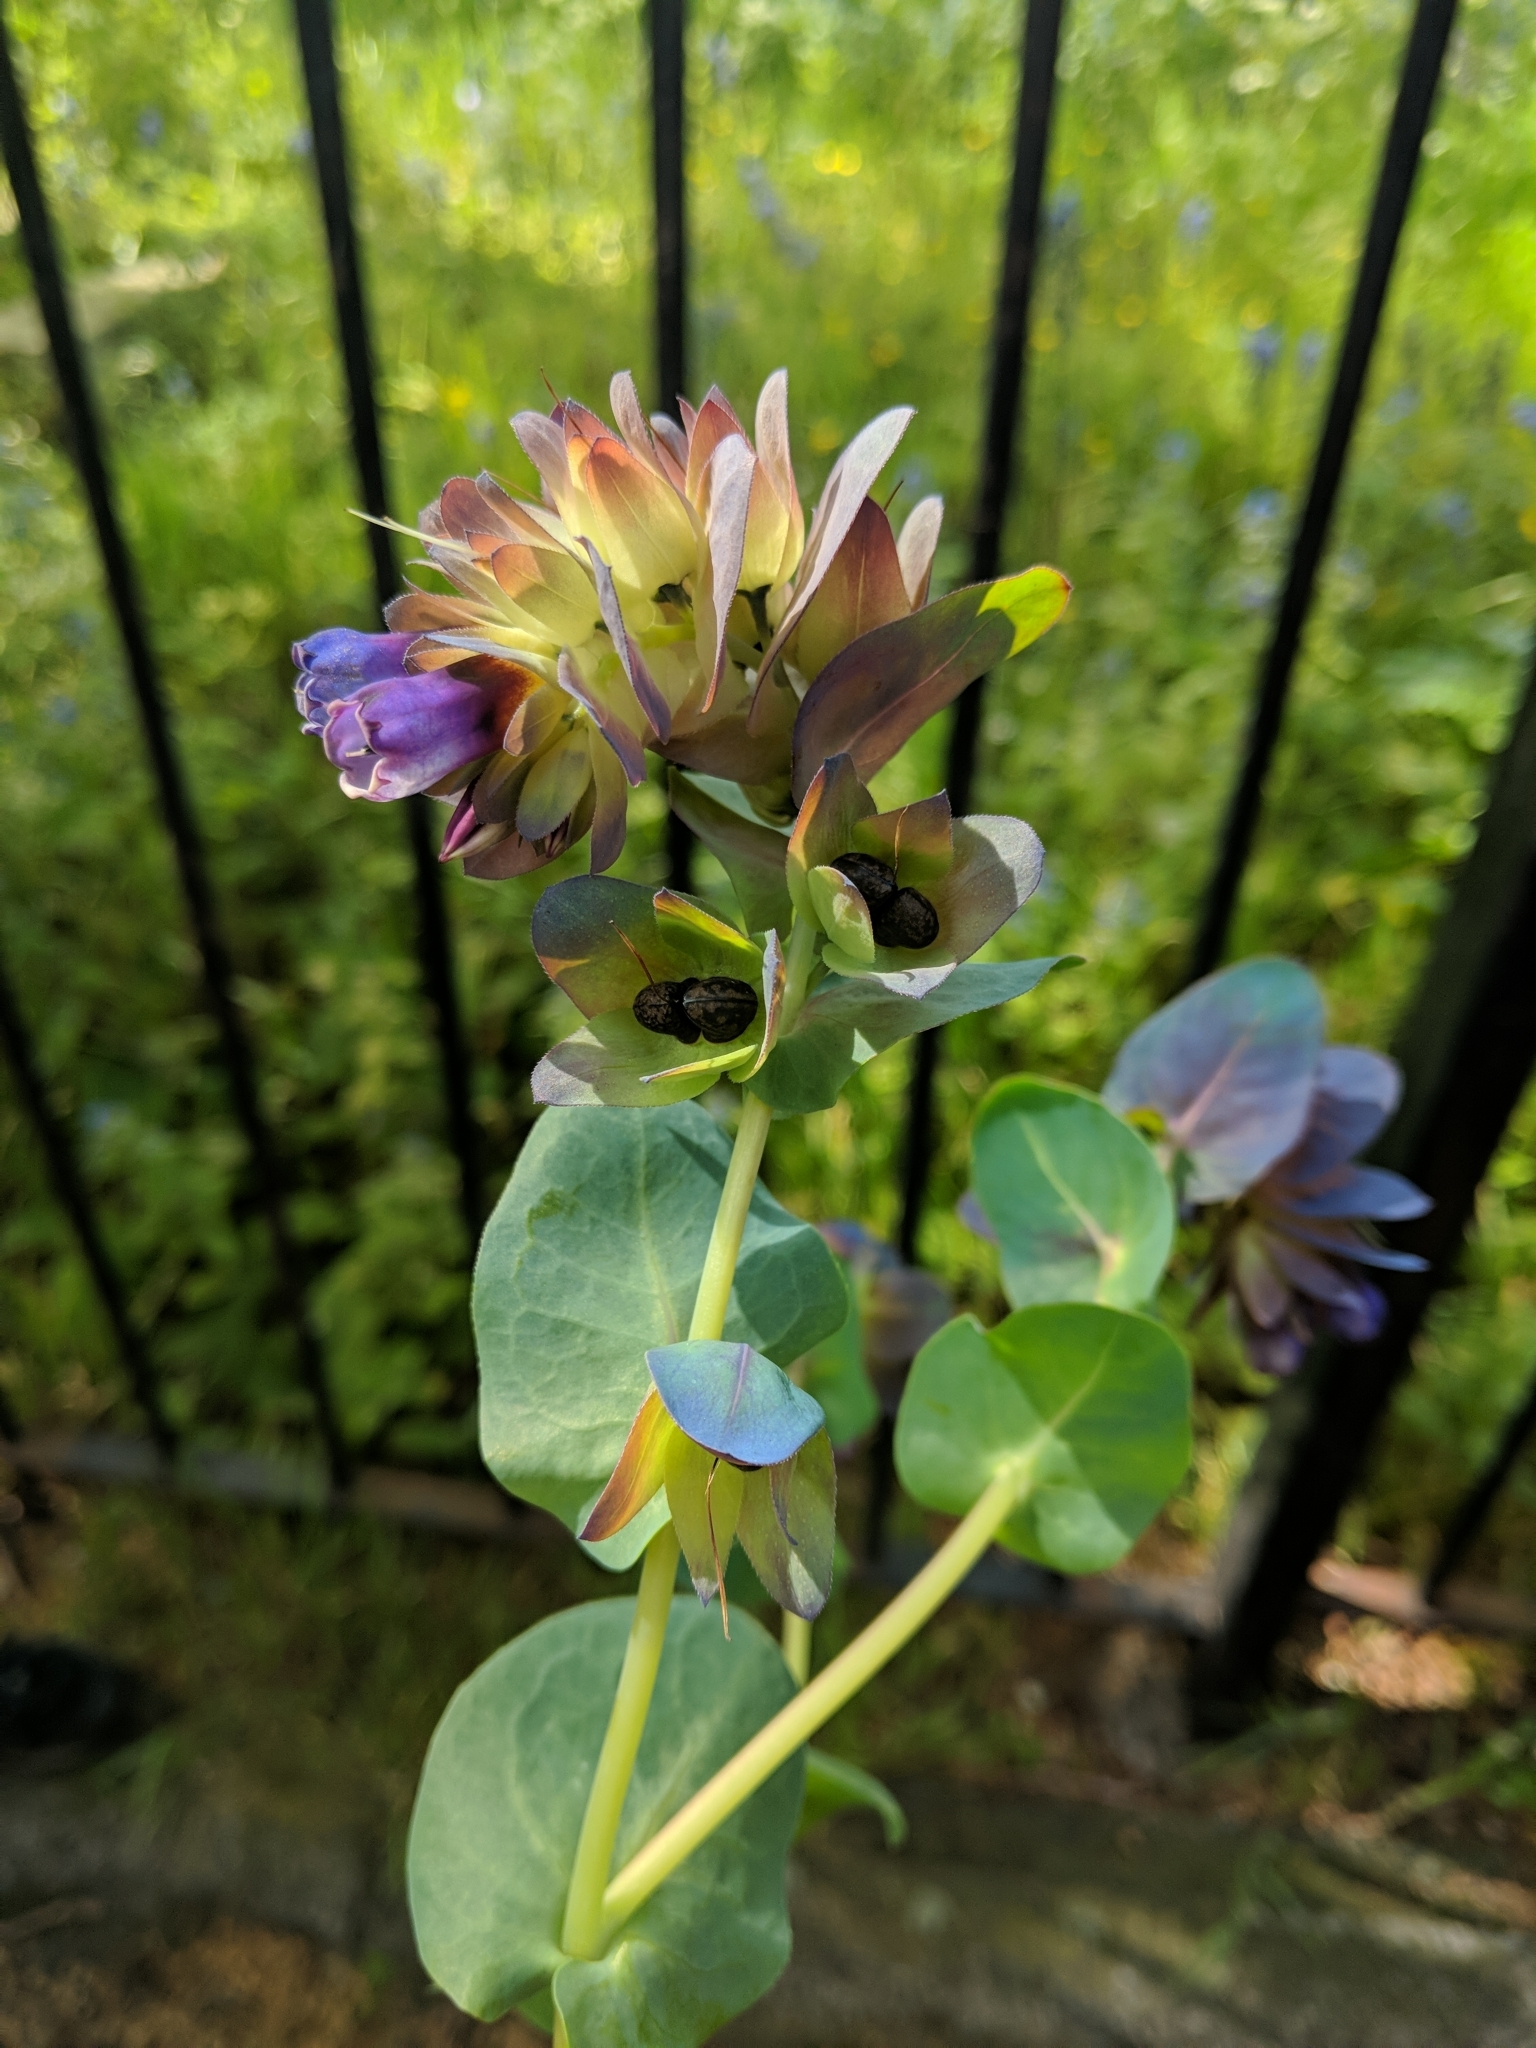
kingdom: Plantae
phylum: Tracheophyta
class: Magnoliopsida
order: Boraginales
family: Boraginaceae
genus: Cerinthe
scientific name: Cerinthe major
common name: Greater honeywort
